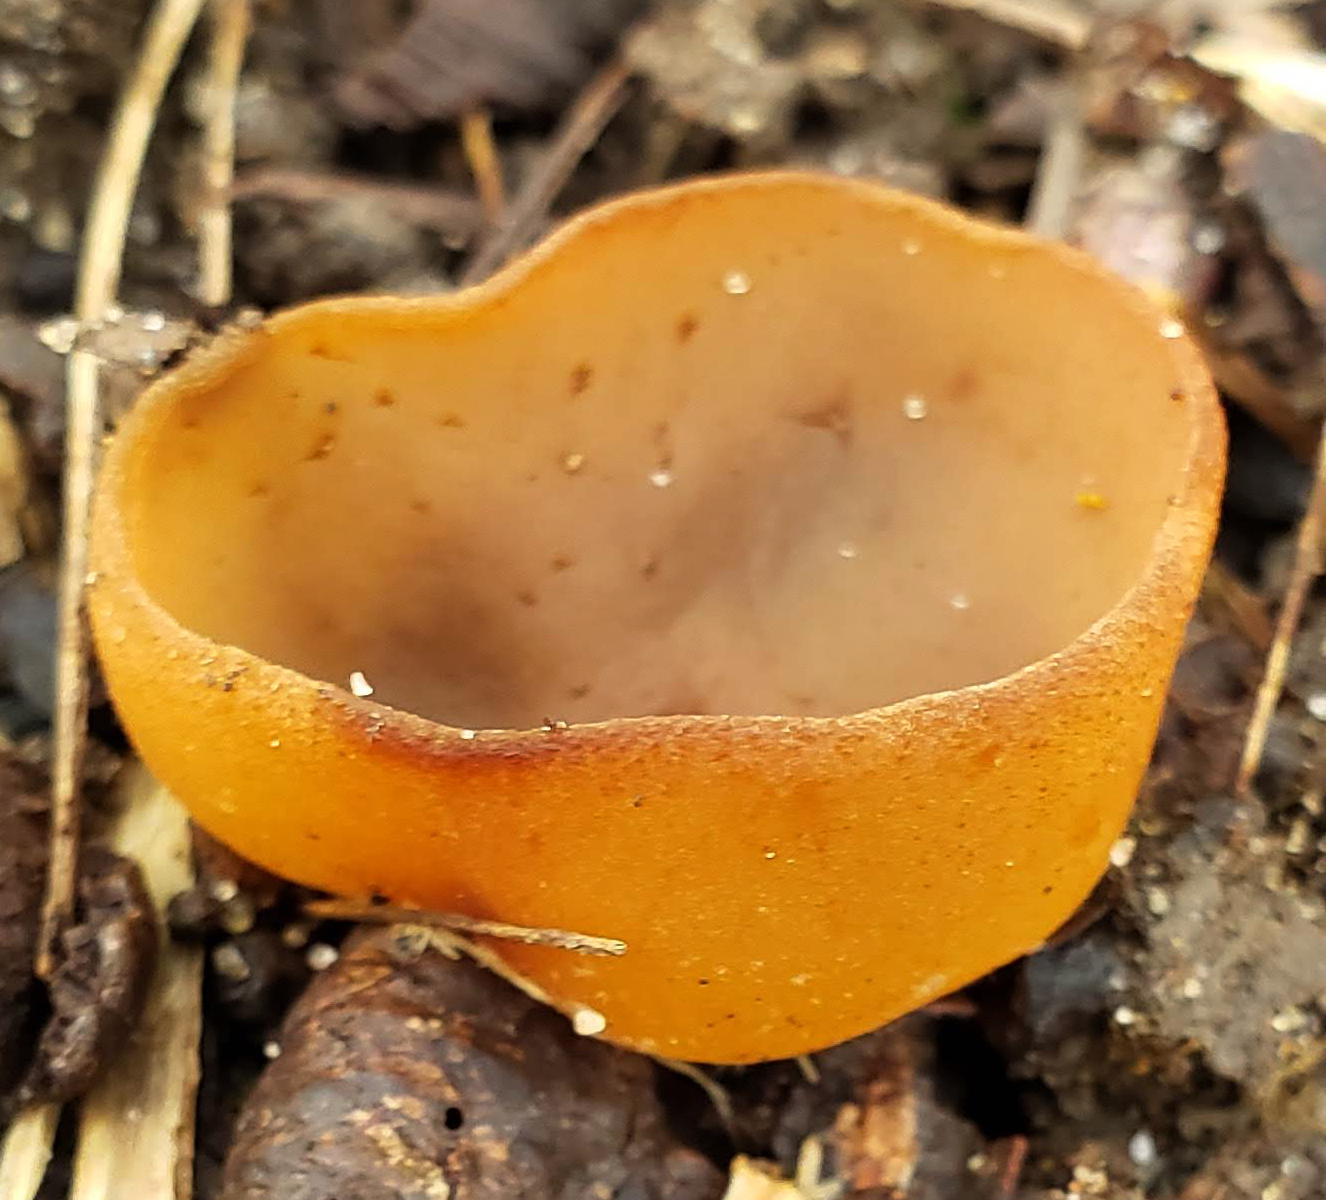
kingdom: Fungi
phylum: Ascomycota
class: Pezizomycetes
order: Pezizales
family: Pezizaceae
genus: Peziza
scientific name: Peziza varia
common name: Layered cup
